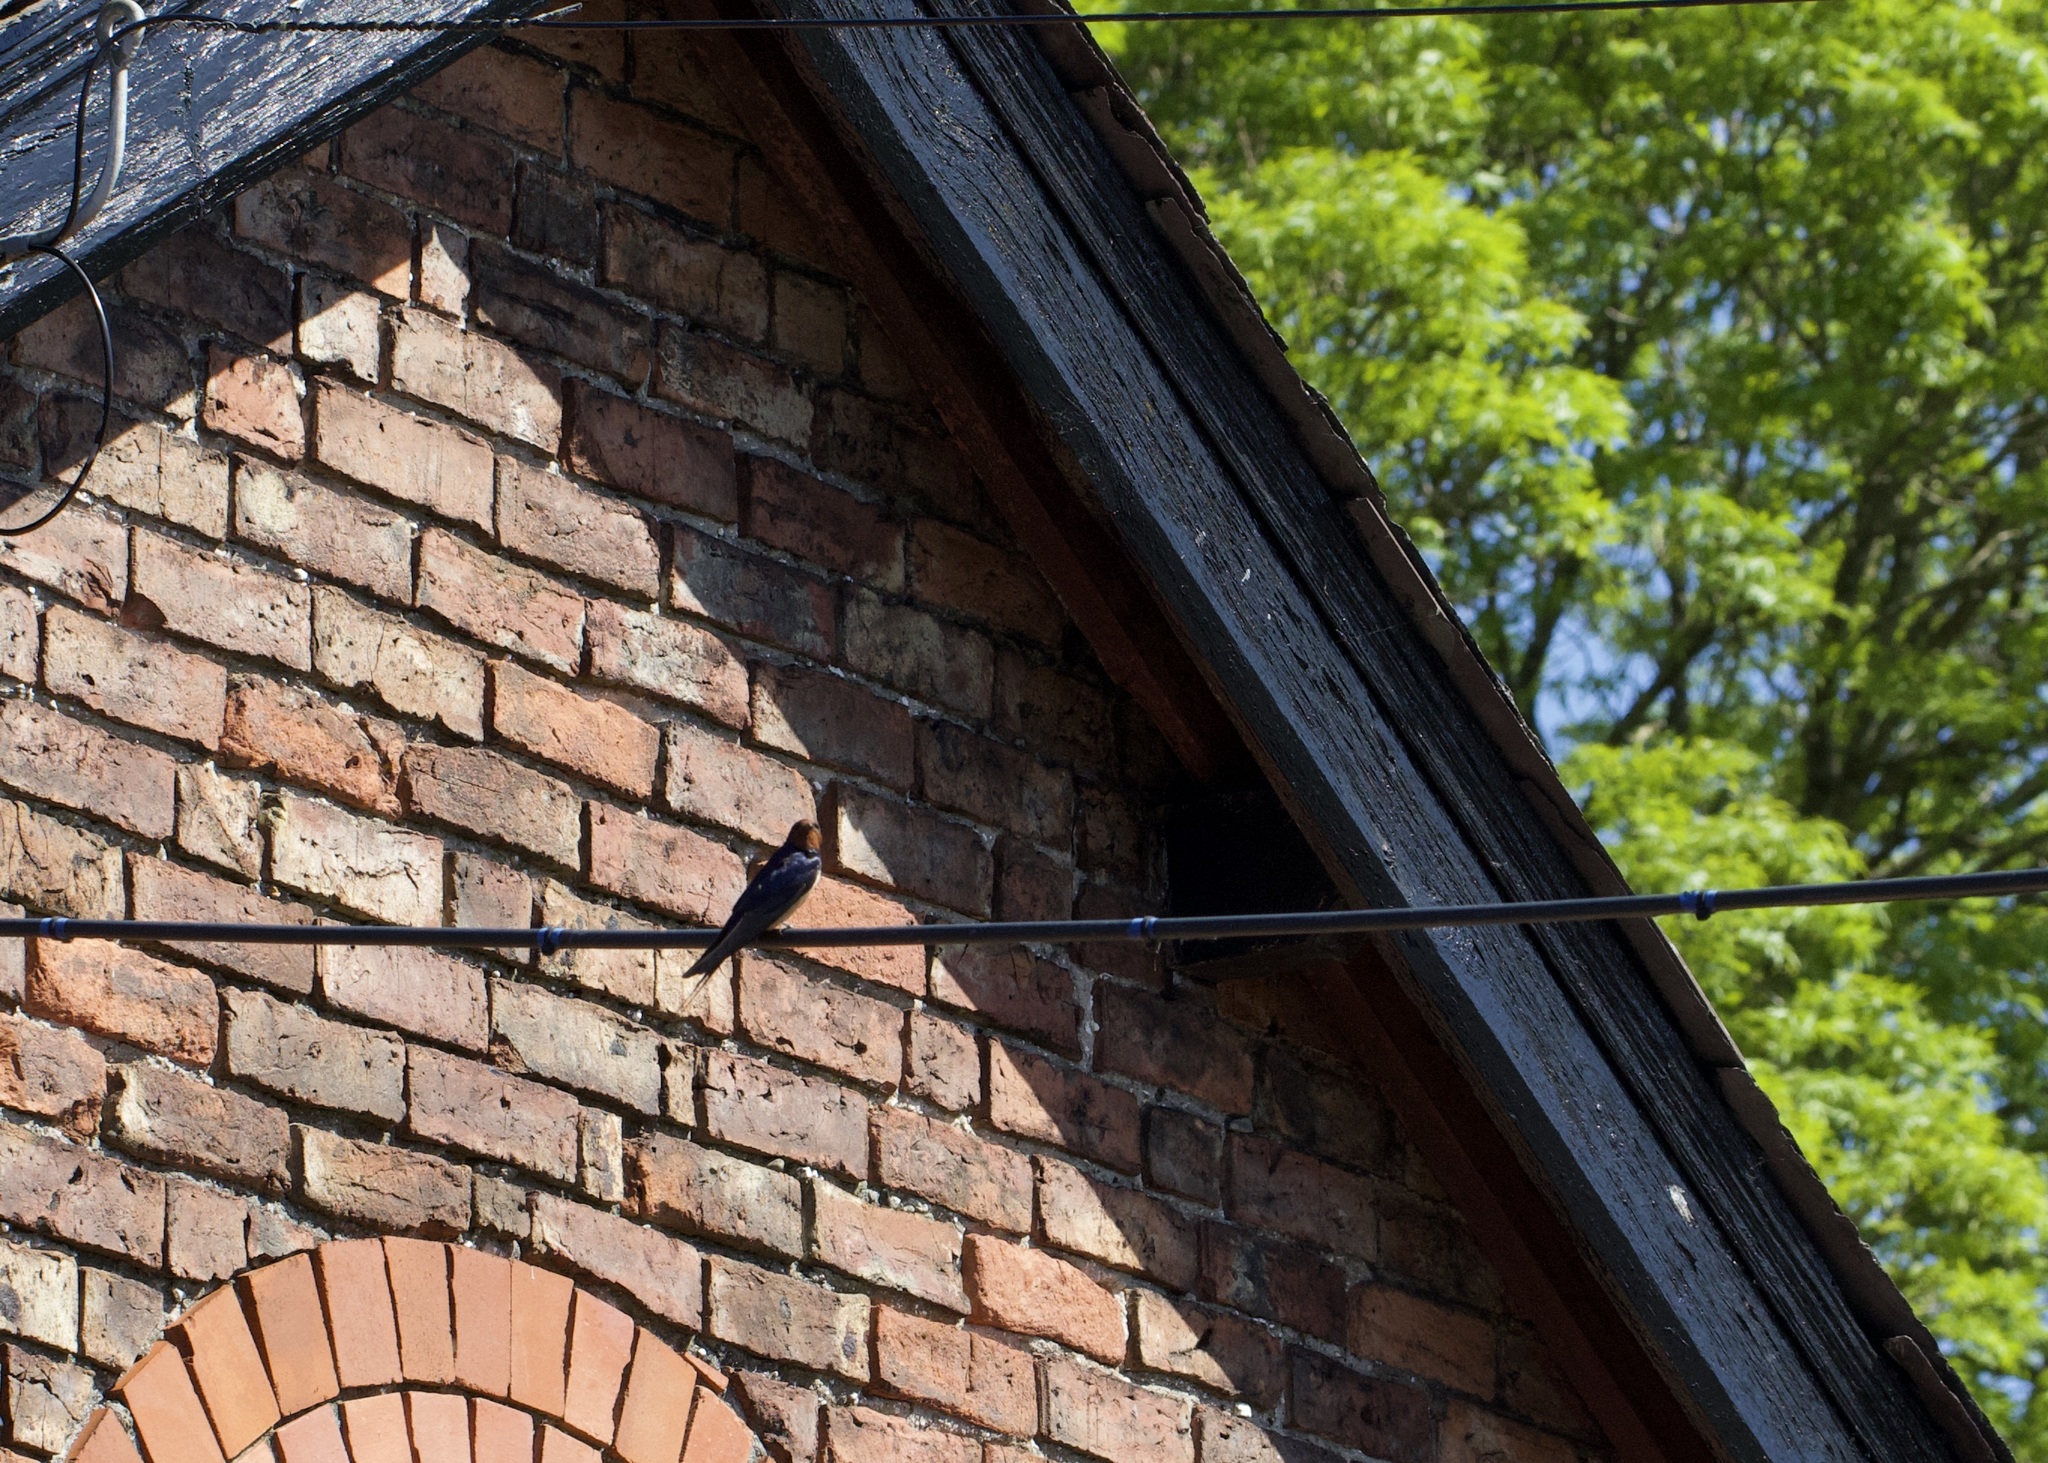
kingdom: Animalia
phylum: Chordata
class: Aves
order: Passeriformes
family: Hirundinidae
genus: Hirundo
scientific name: Hirundo rustica
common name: Barn swallow
